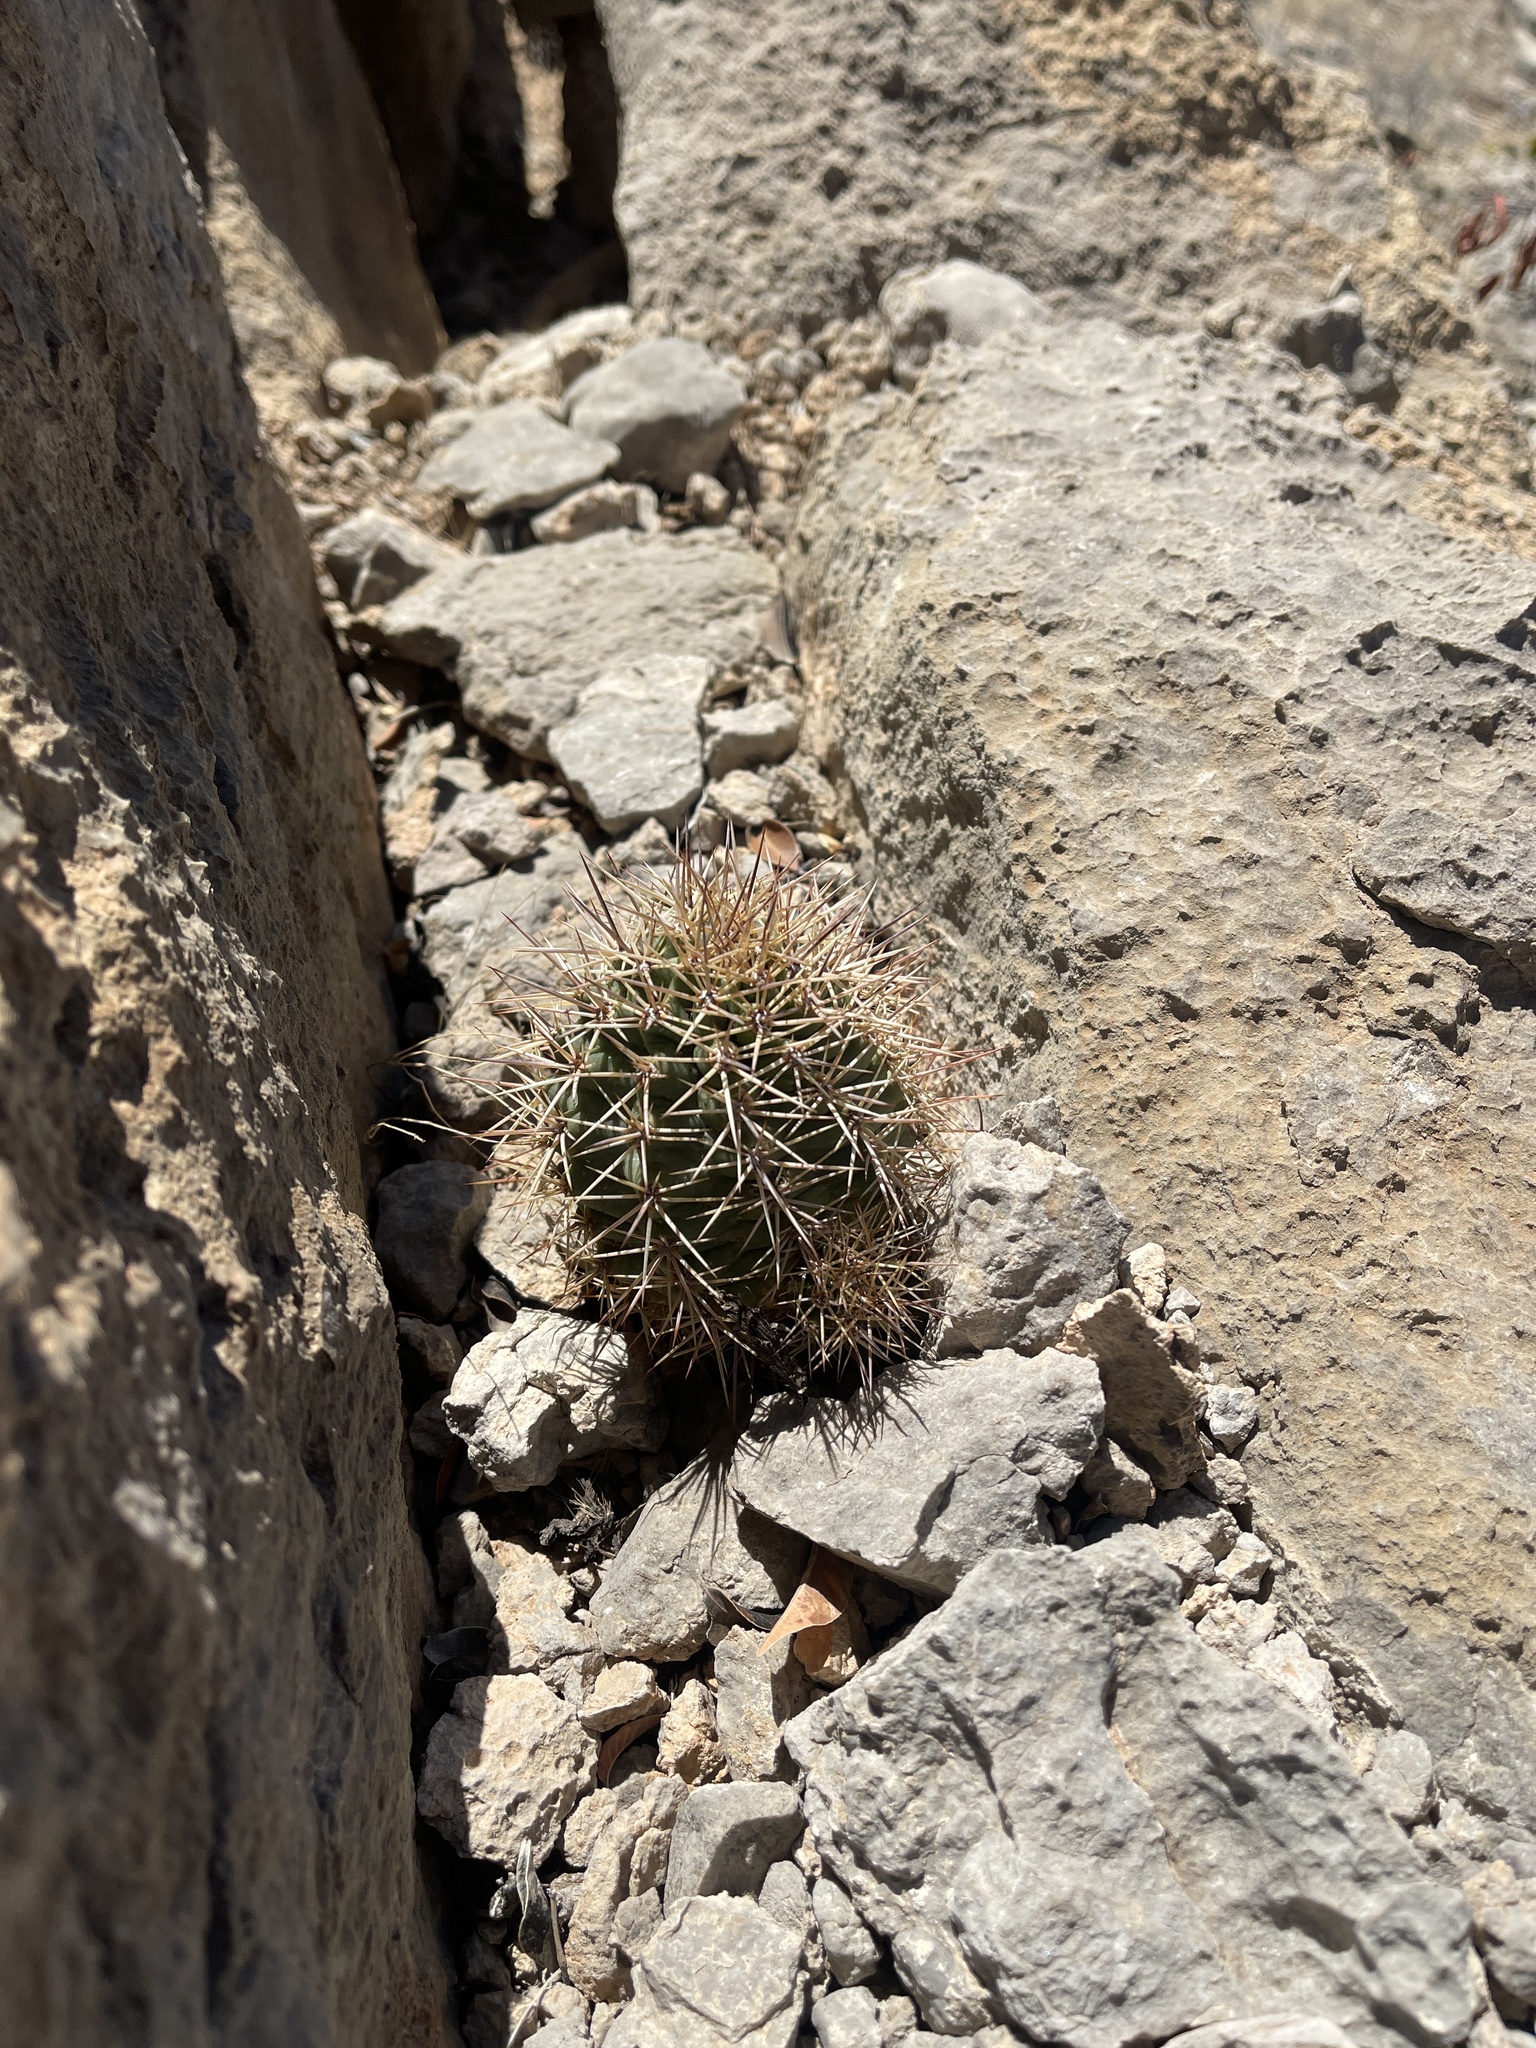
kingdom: Plantae
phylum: Tracheophyta
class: Magnoliopsida
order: Caryophyllales
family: Cactaceae
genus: Echinocereus
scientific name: Echinocereus coccineus
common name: Scarlet hedgehog cactus
